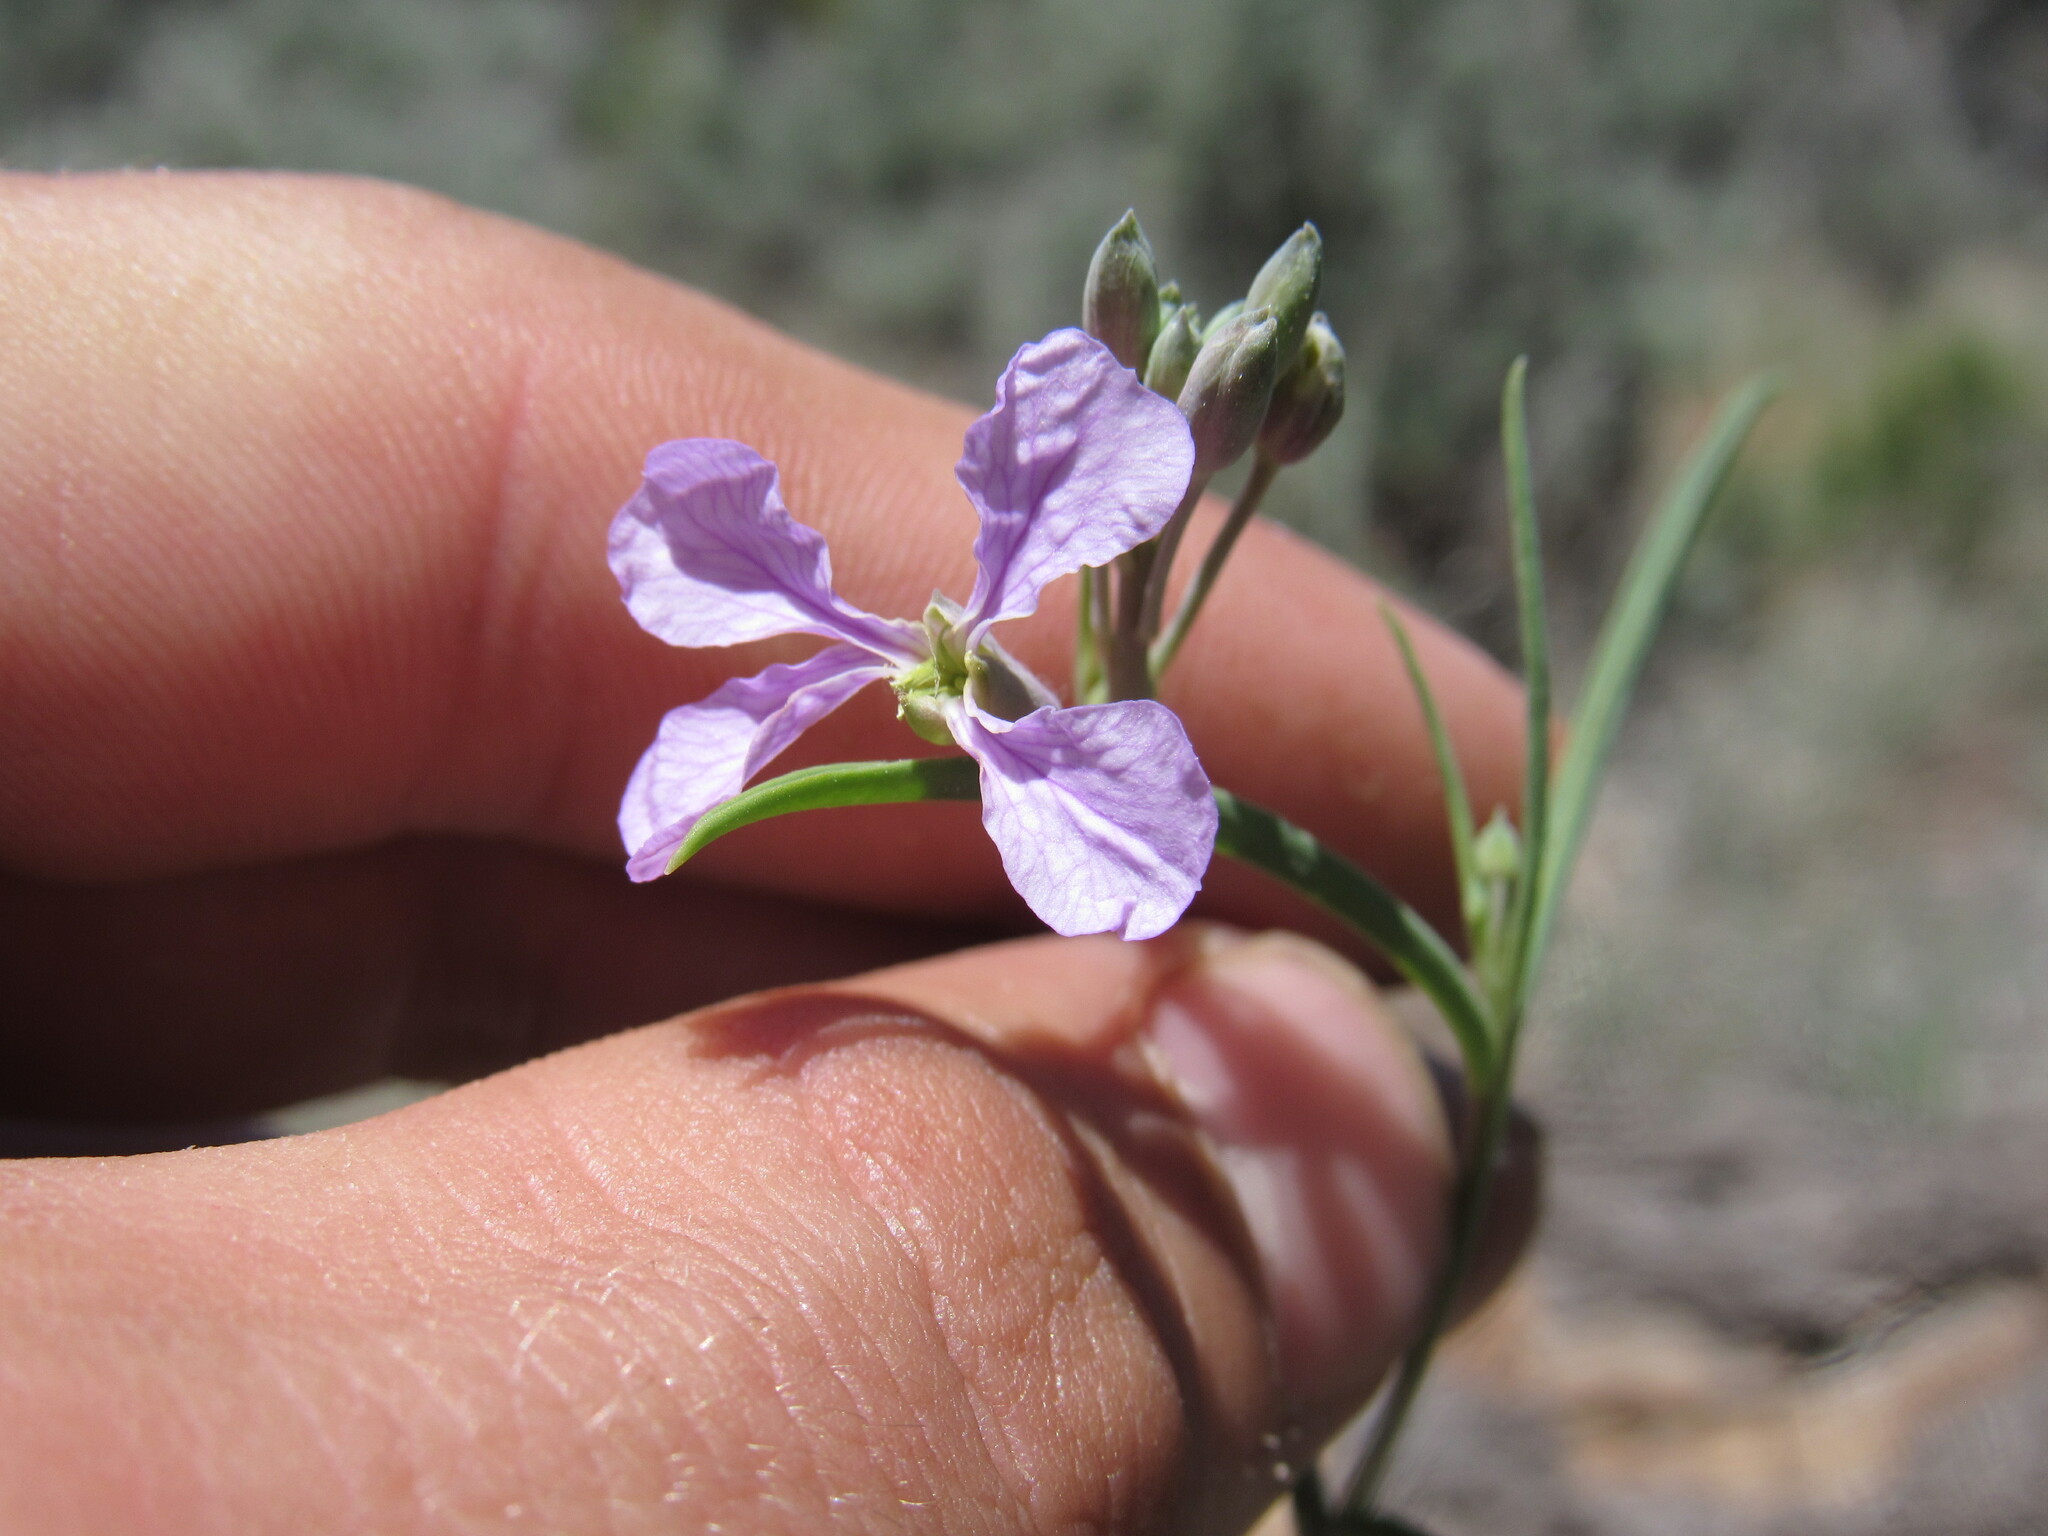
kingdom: Plantae
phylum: Tracheophyta
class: Magnoliopsida
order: Brassicales
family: Brassicaceae
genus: Hesperidanthus
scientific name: Hesperidanthus linearifolius
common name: Slim-leaf plains mustard
